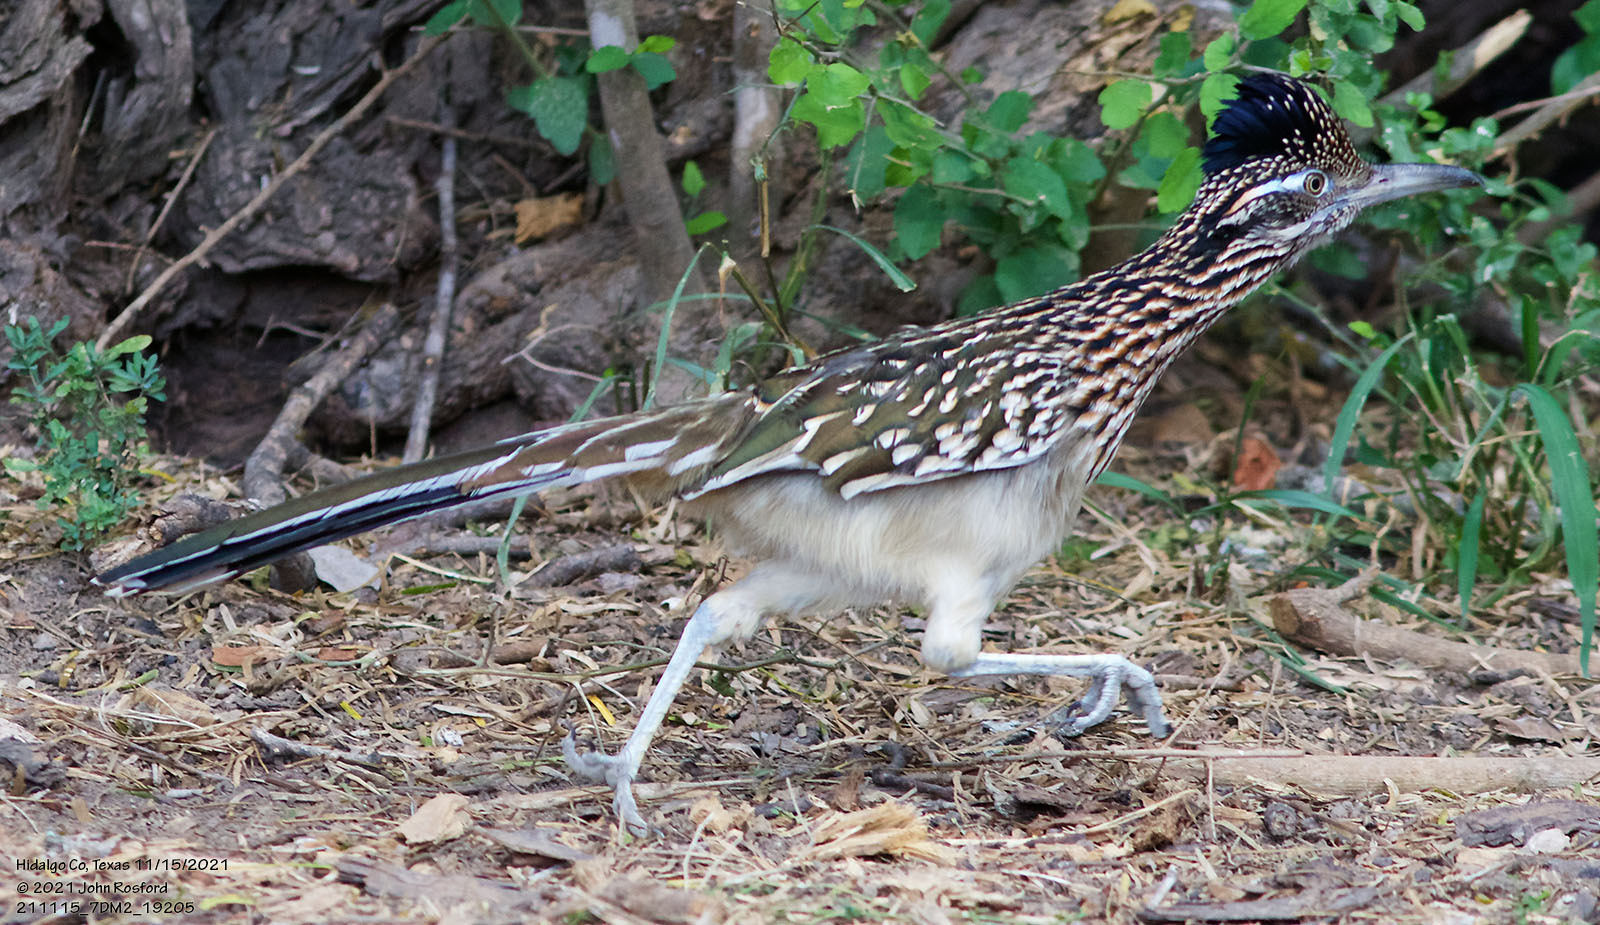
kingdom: Animalia
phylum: Chordata
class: Aves
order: Cuculiformes
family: Cuculidae
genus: Geococcyx
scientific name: Geococcyx californianus
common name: Greater roadrunner
